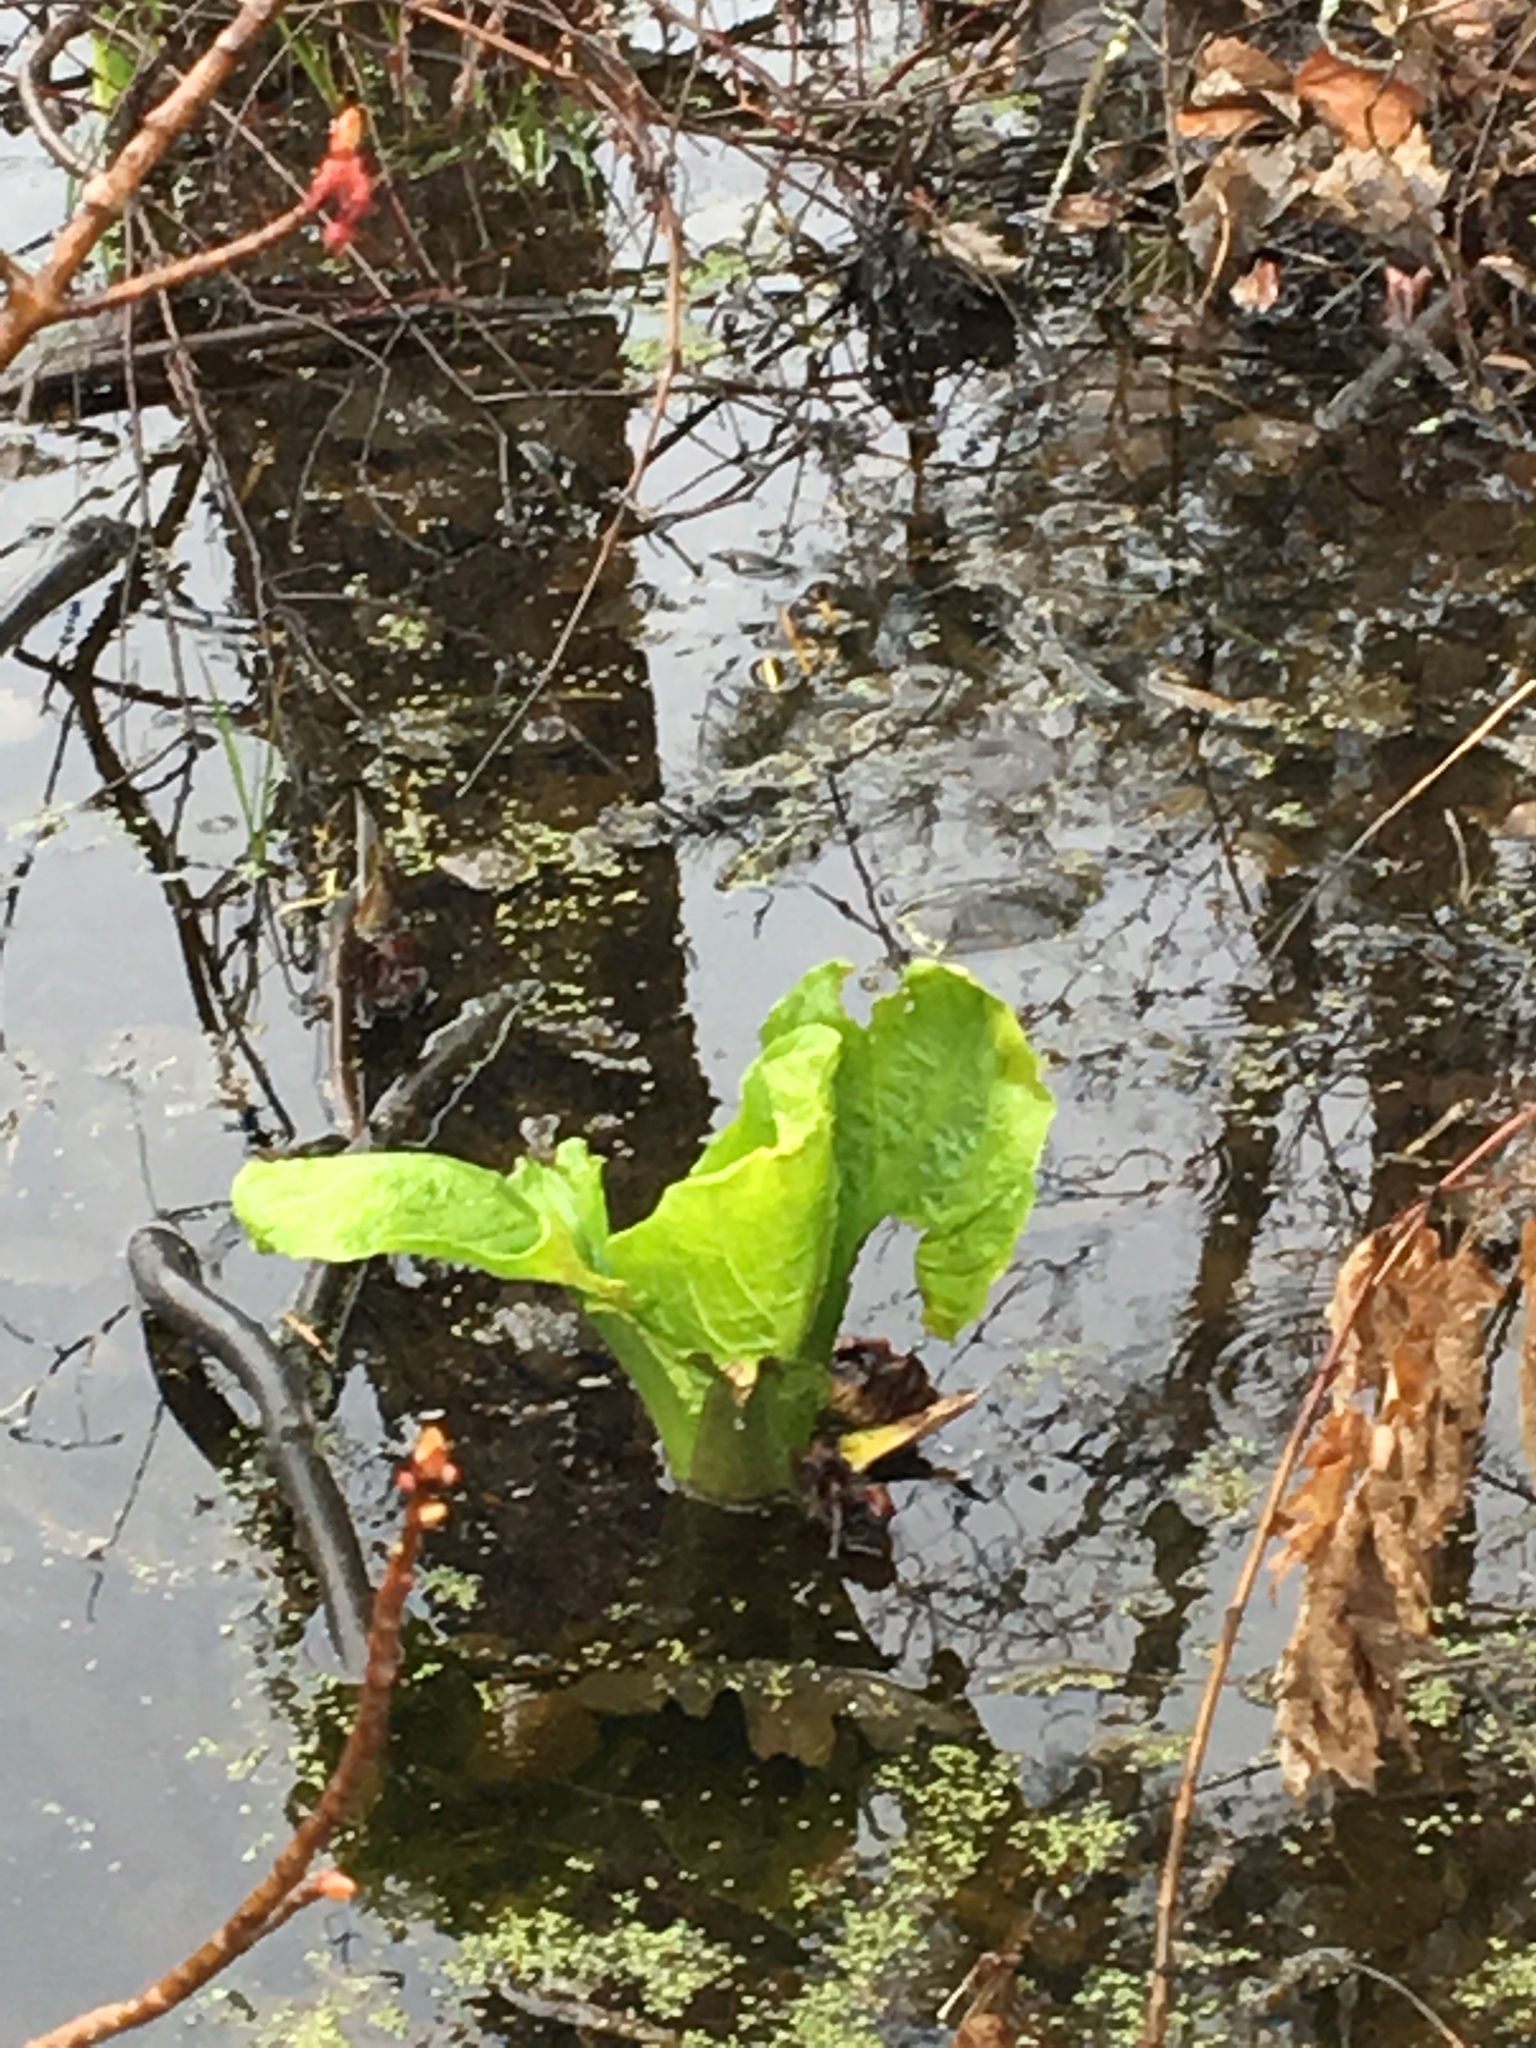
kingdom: Plantae
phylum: Tracheophyta
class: Liliopsida
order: Alismatales
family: Araceae
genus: Symplocarpus
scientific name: Symplocarpus foetidus
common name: Eastern skunk cabbage
